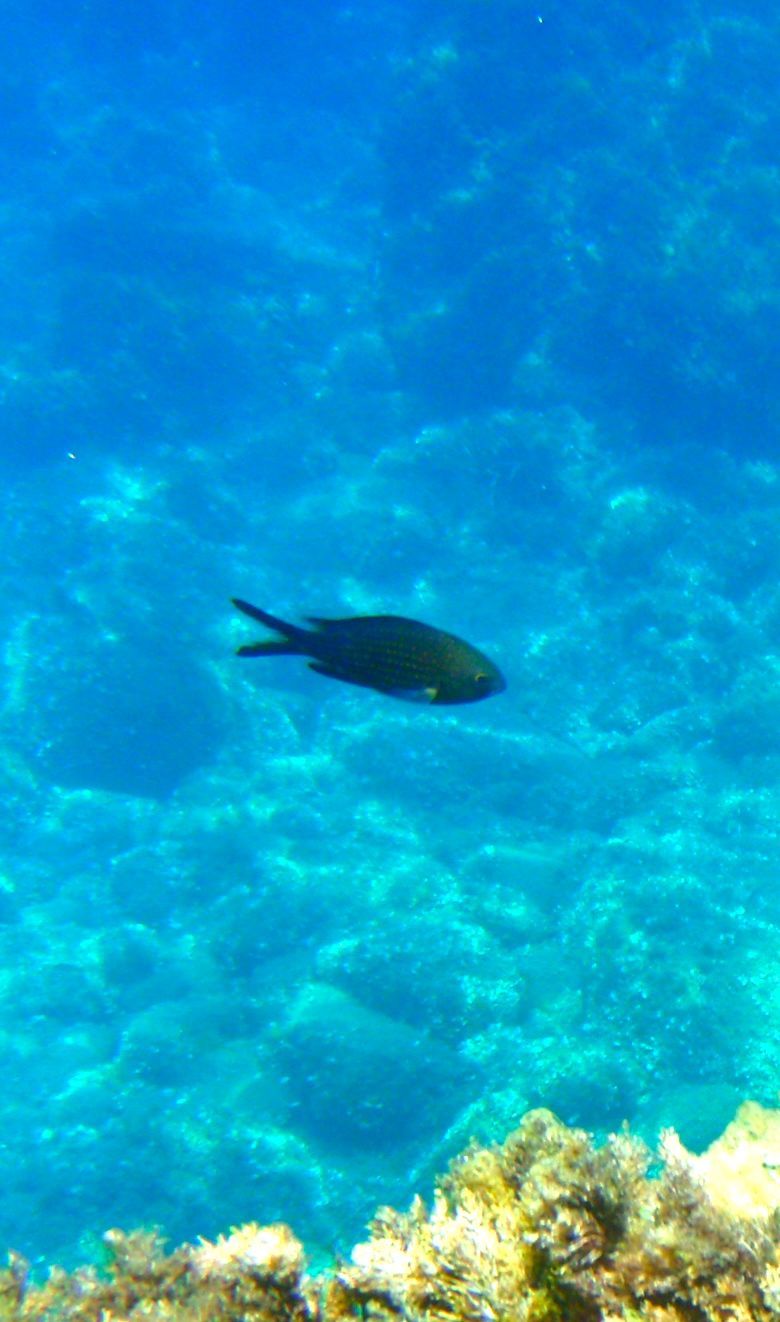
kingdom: Animalia
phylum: Chordata
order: Perciformes
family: Pomacentridae
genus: Chromis
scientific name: Chromis chromis
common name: Damselfish
